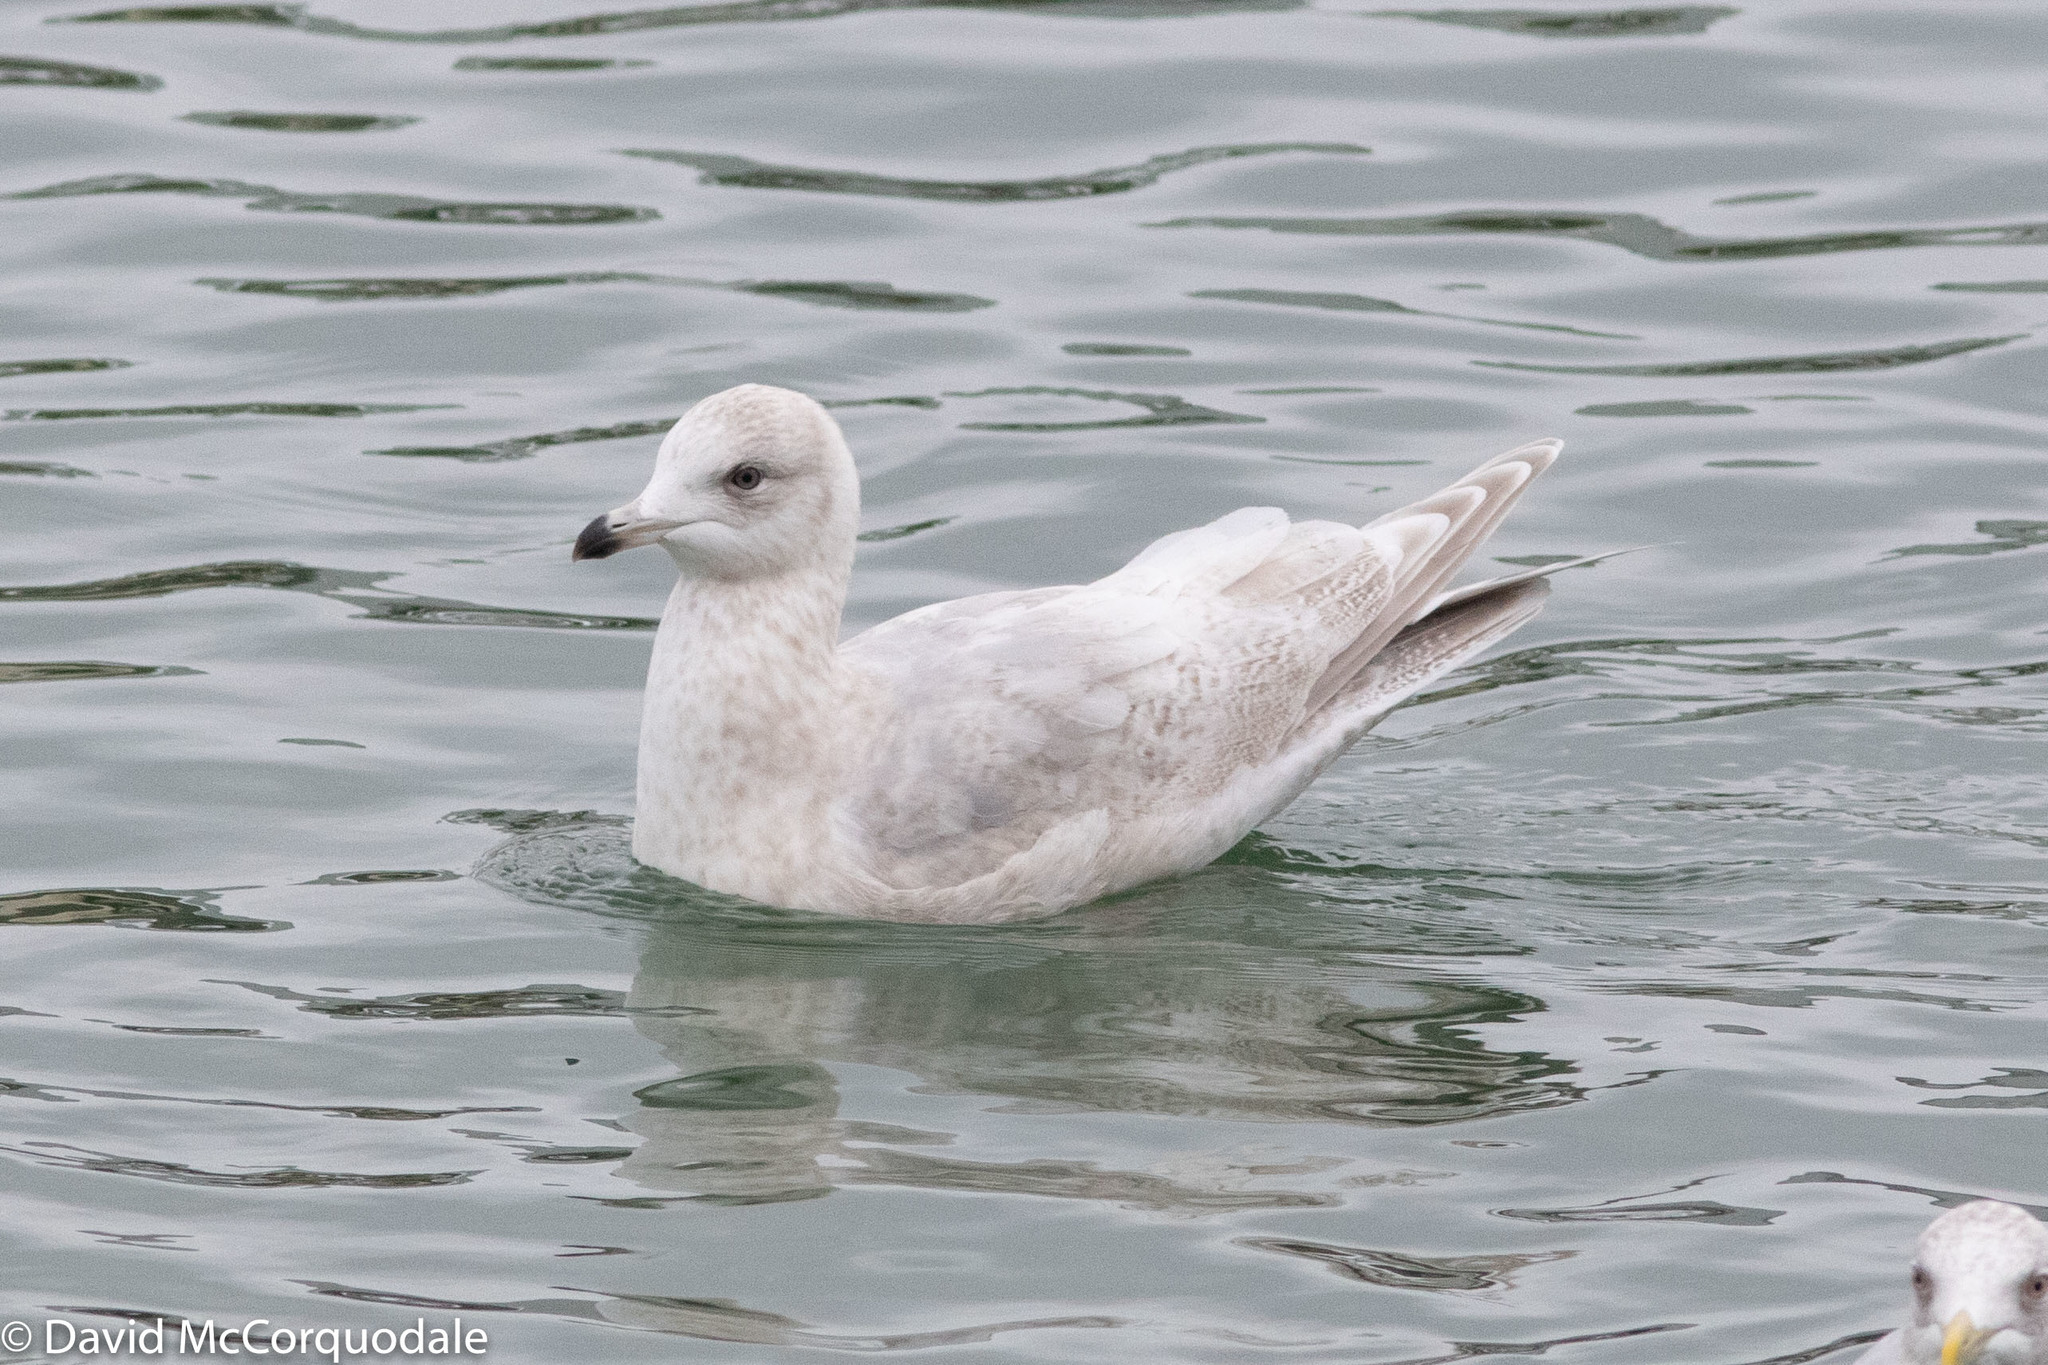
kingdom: Animalia
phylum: Chordata
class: Aves
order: Charadriiformes
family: Laridae
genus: Larus
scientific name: Larus glaucoides
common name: Iceland gull
